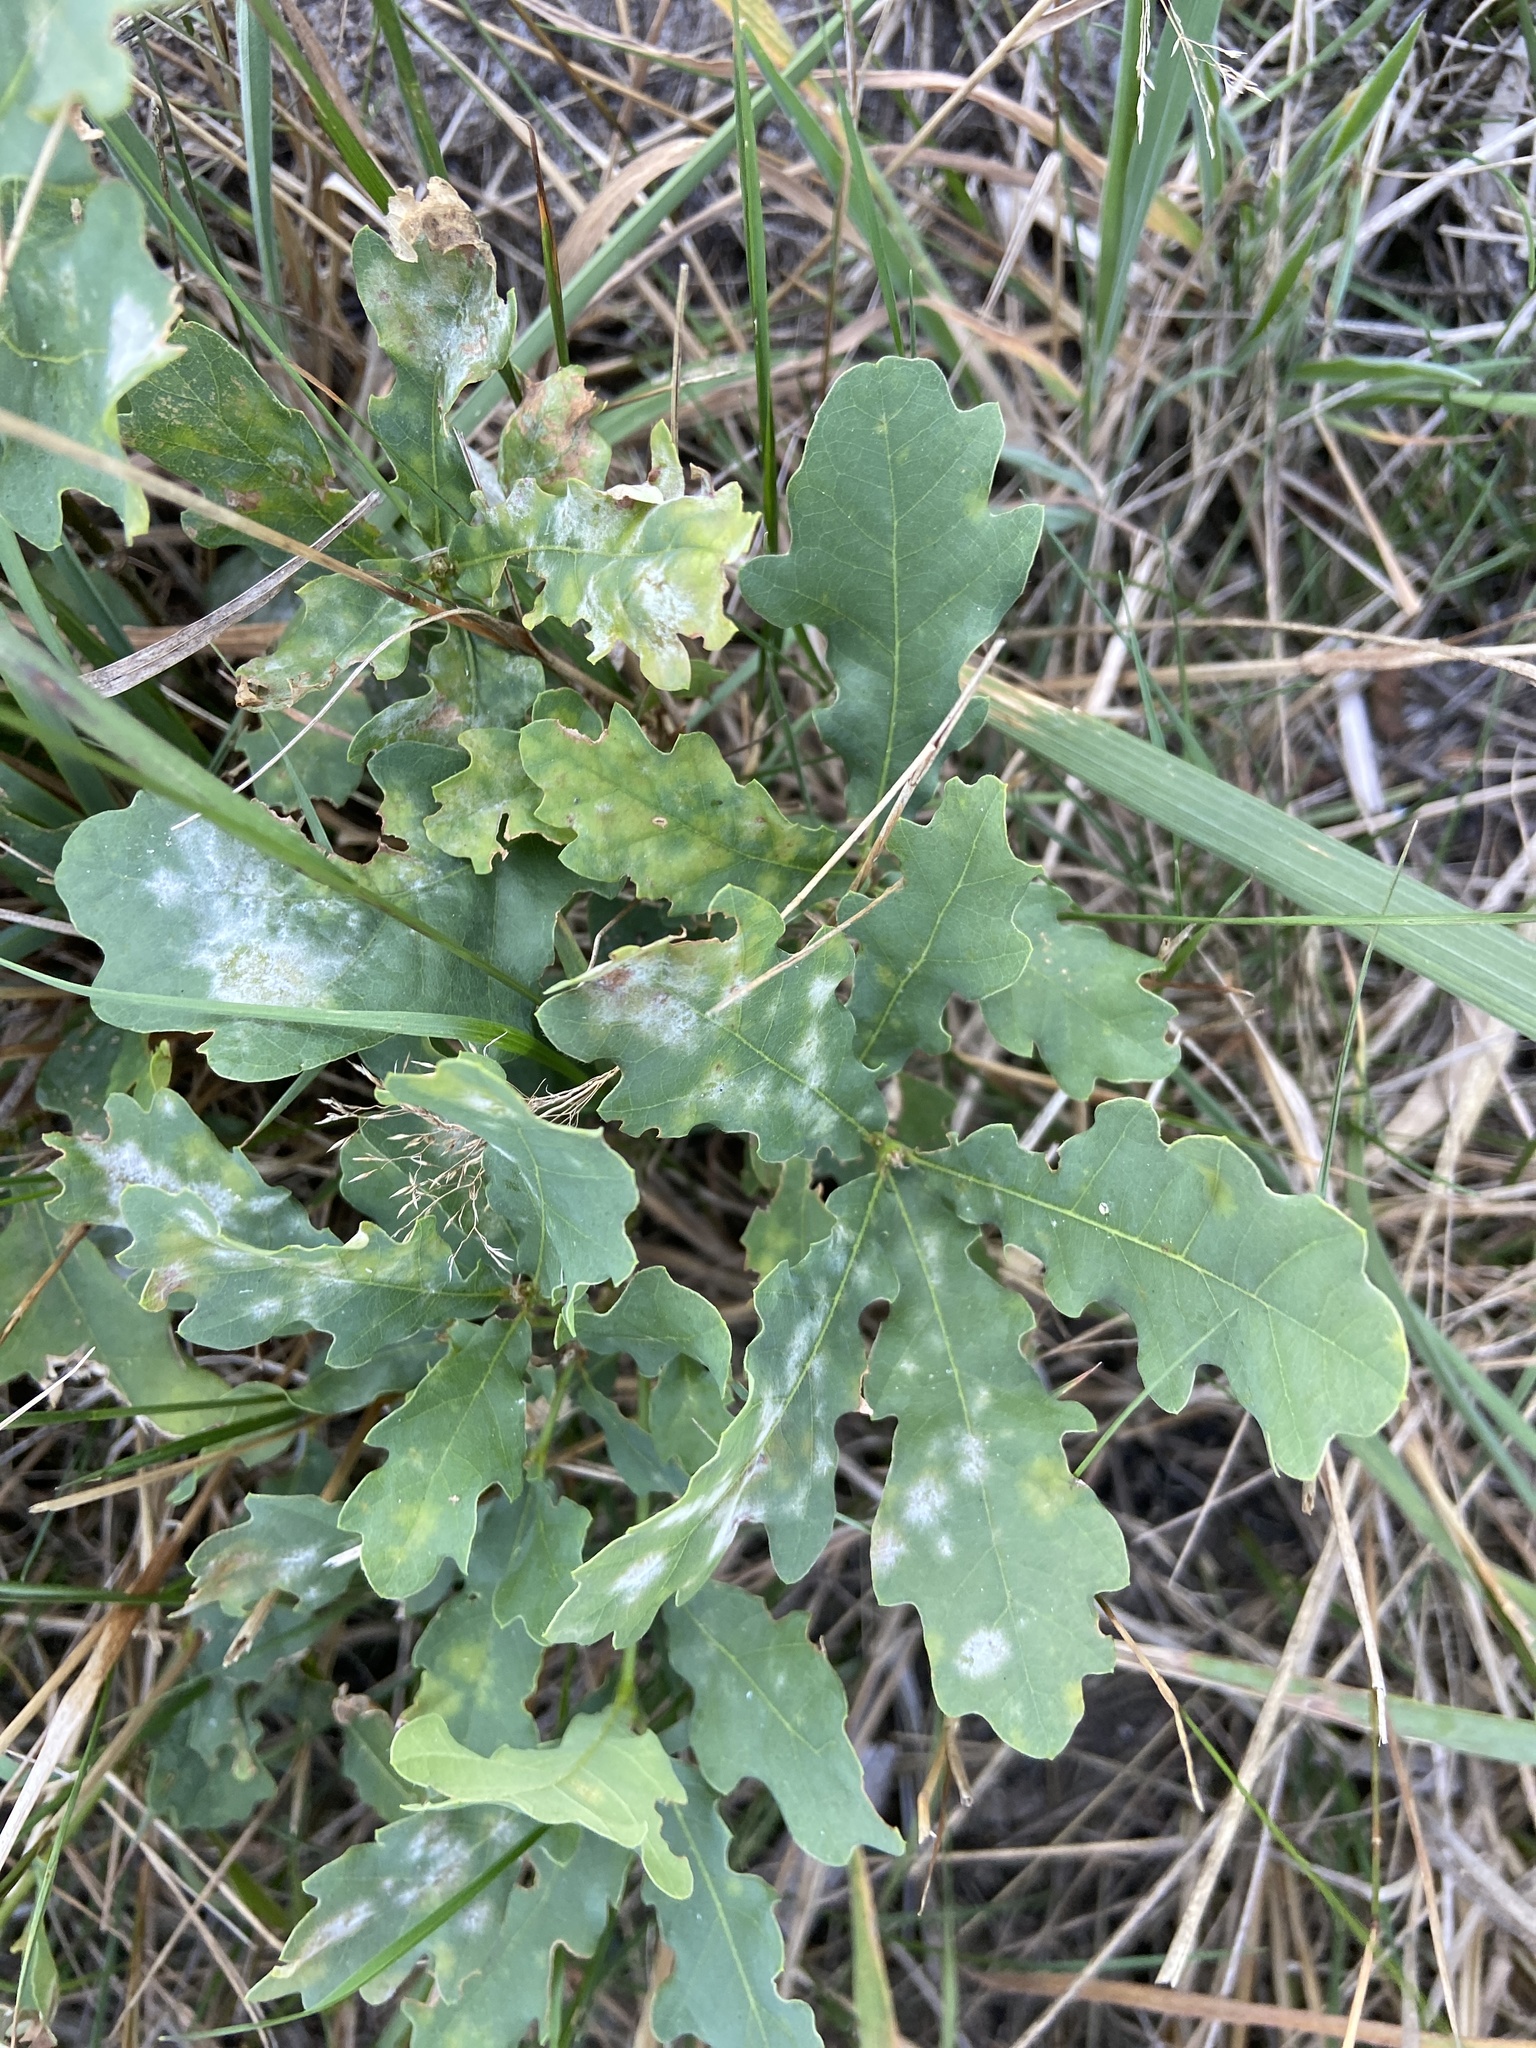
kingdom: Plantae
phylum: Tracheophyta
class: Magnoliopsida
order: Fagales
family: Fagaceae
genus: Quercus
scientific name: Quercus robur
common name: Pedunculate oak
